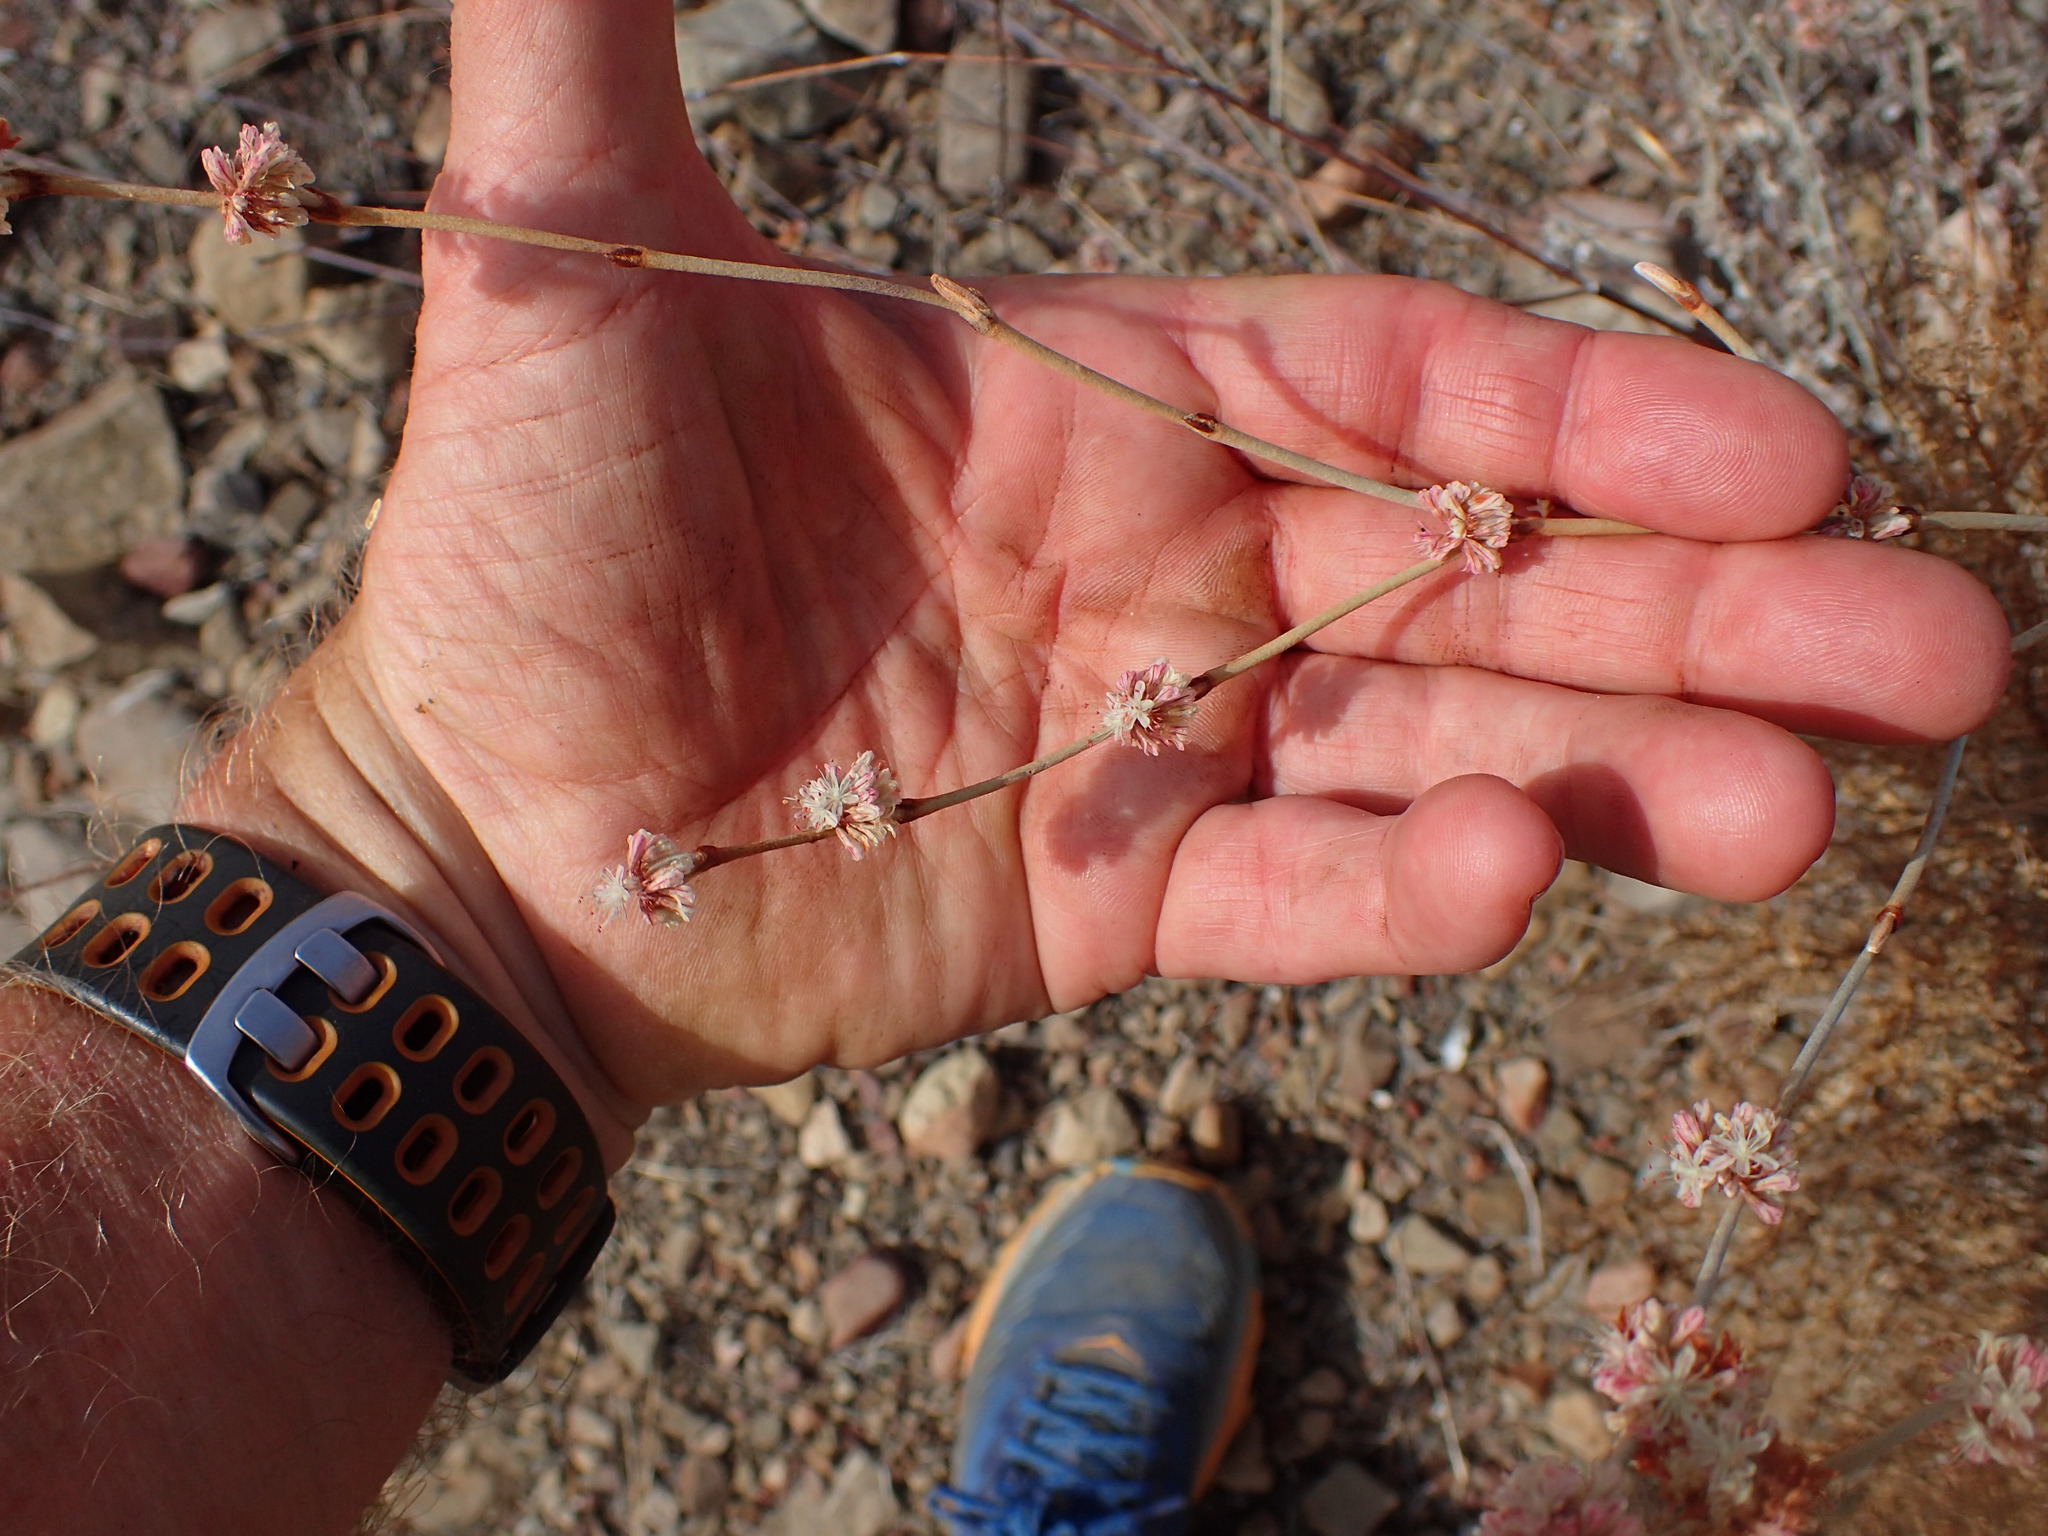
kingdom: Plantae
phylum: Tracheophyta
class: Magnoliopsida
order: Caryophyllales
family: Polygonaceae
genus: Eriogonum
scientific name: Eriogonum elongatum
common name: Long-stem wild buckwheat
